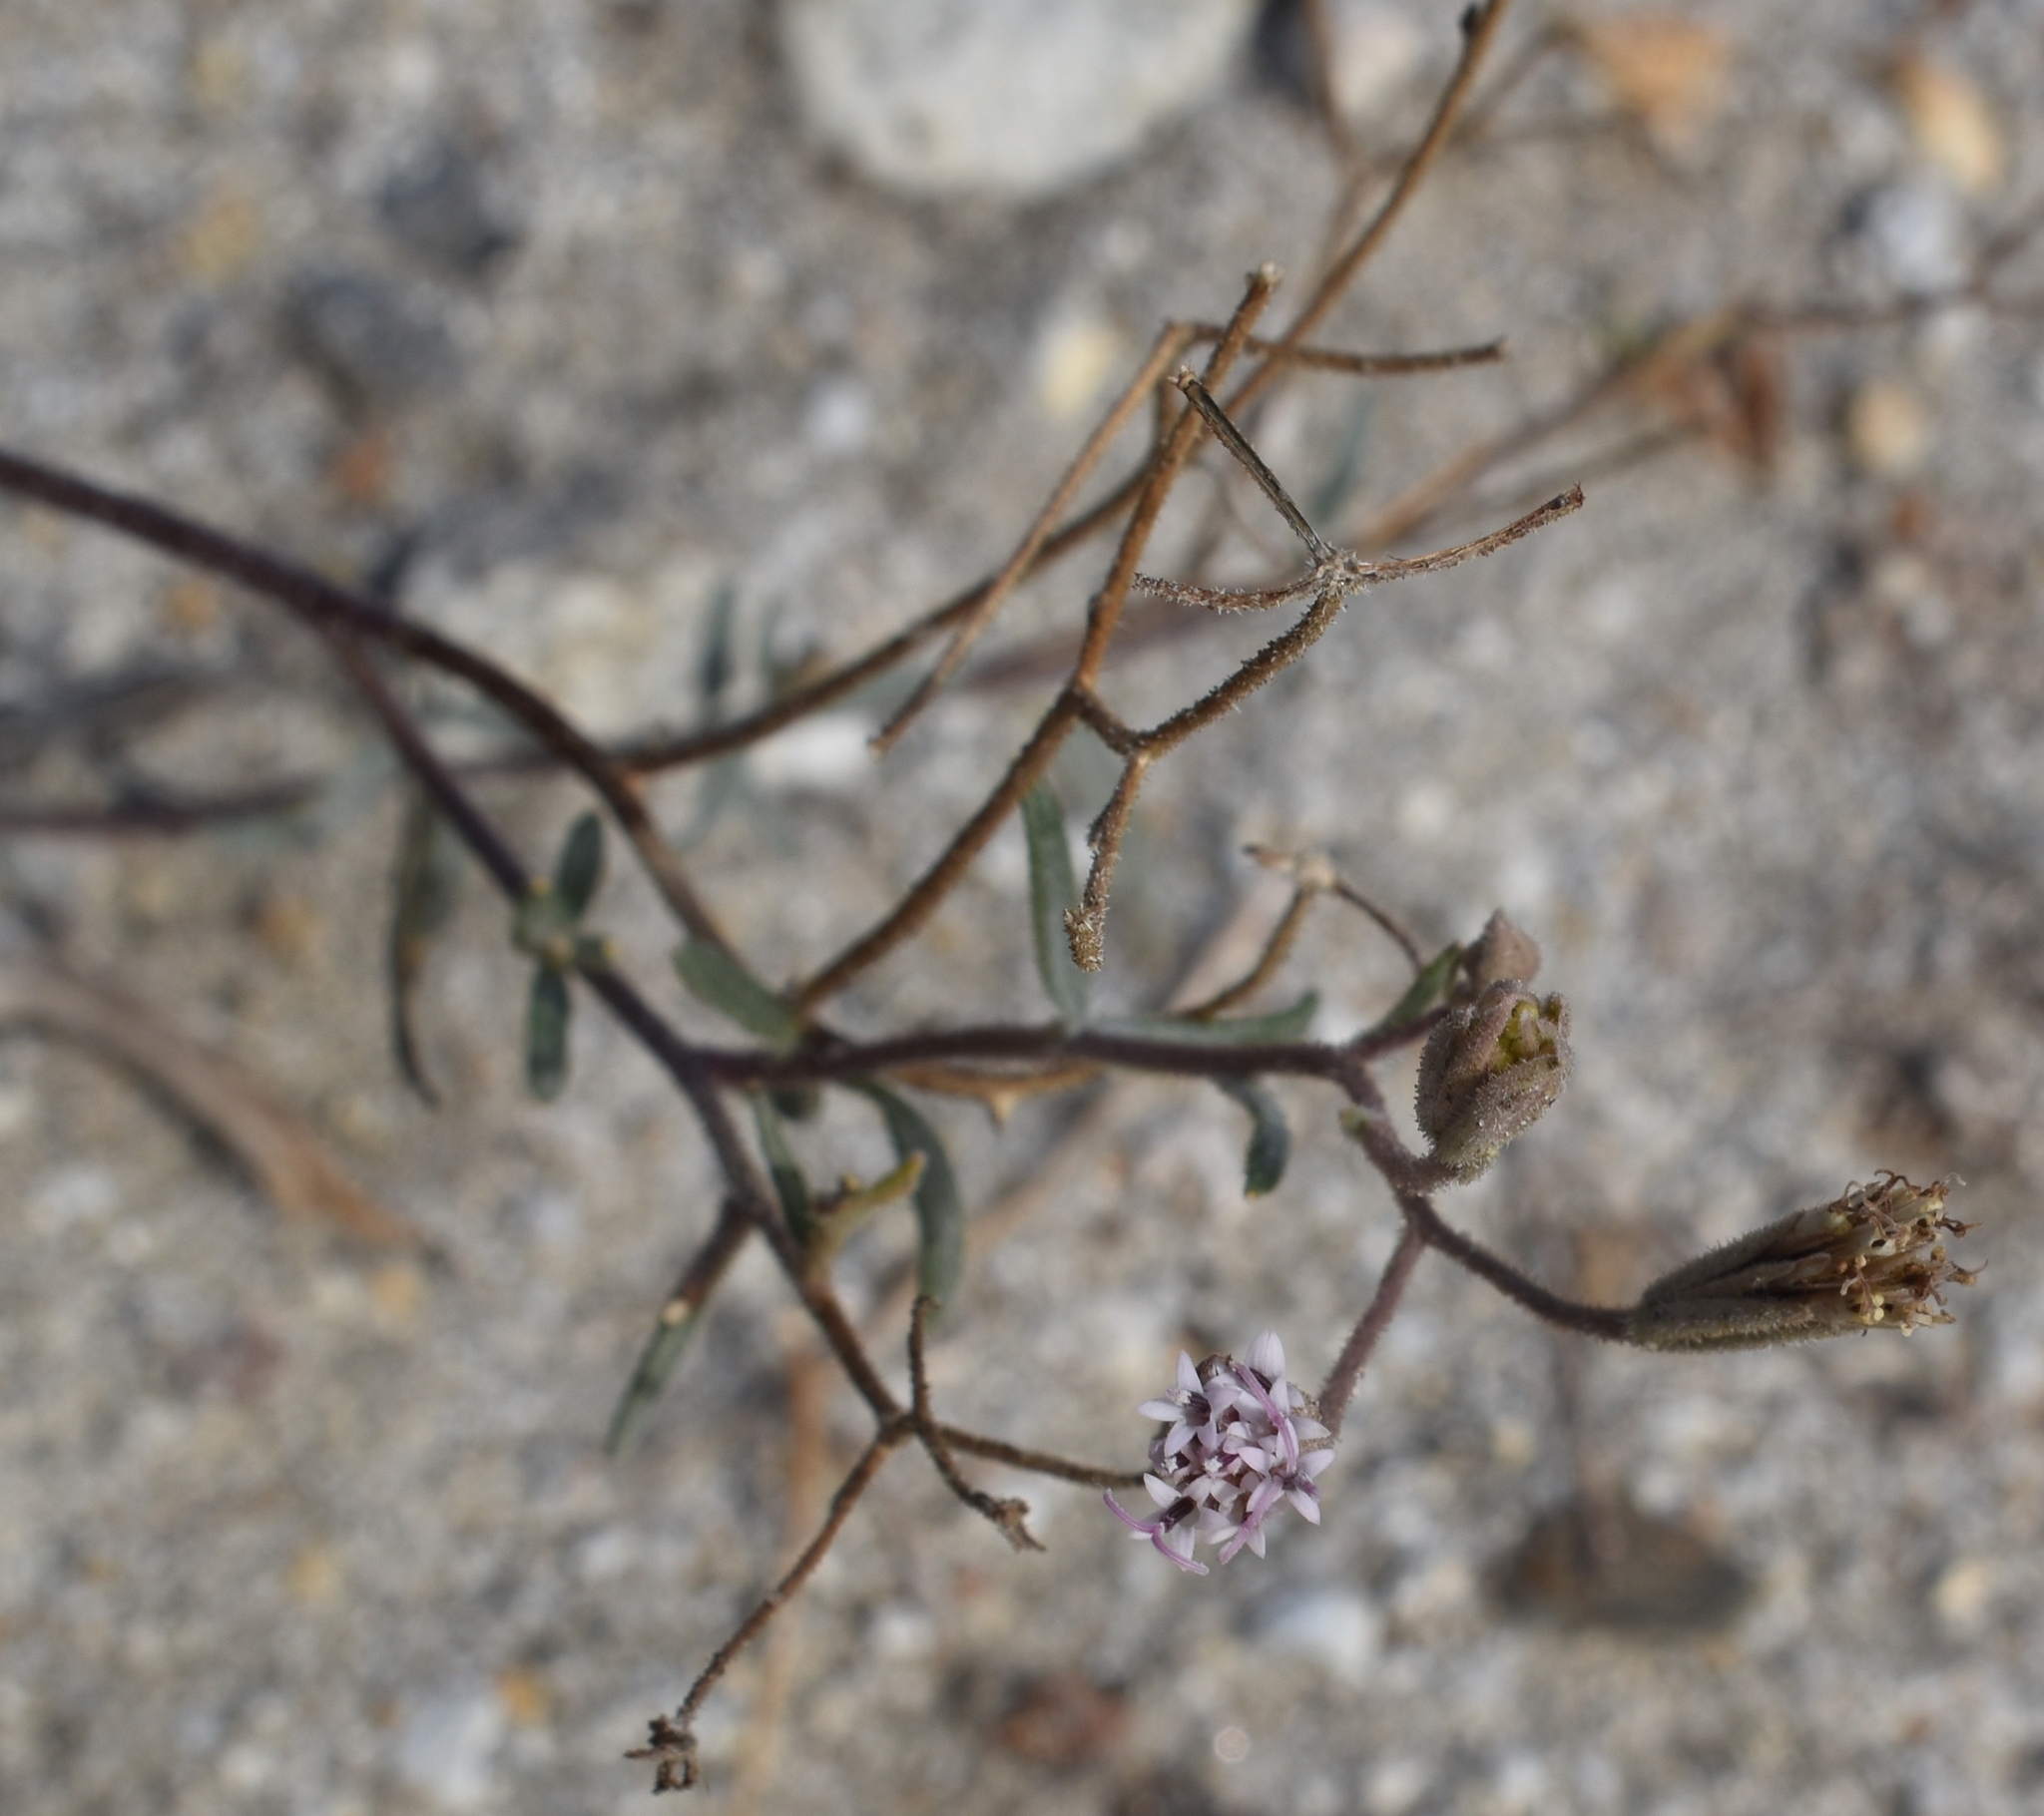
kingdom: Plantae
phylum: Tracheophyta
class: Magnoliopsida
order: Asterales
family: Asteraceae
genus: Palafoxia
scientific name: Palafoxia arida
